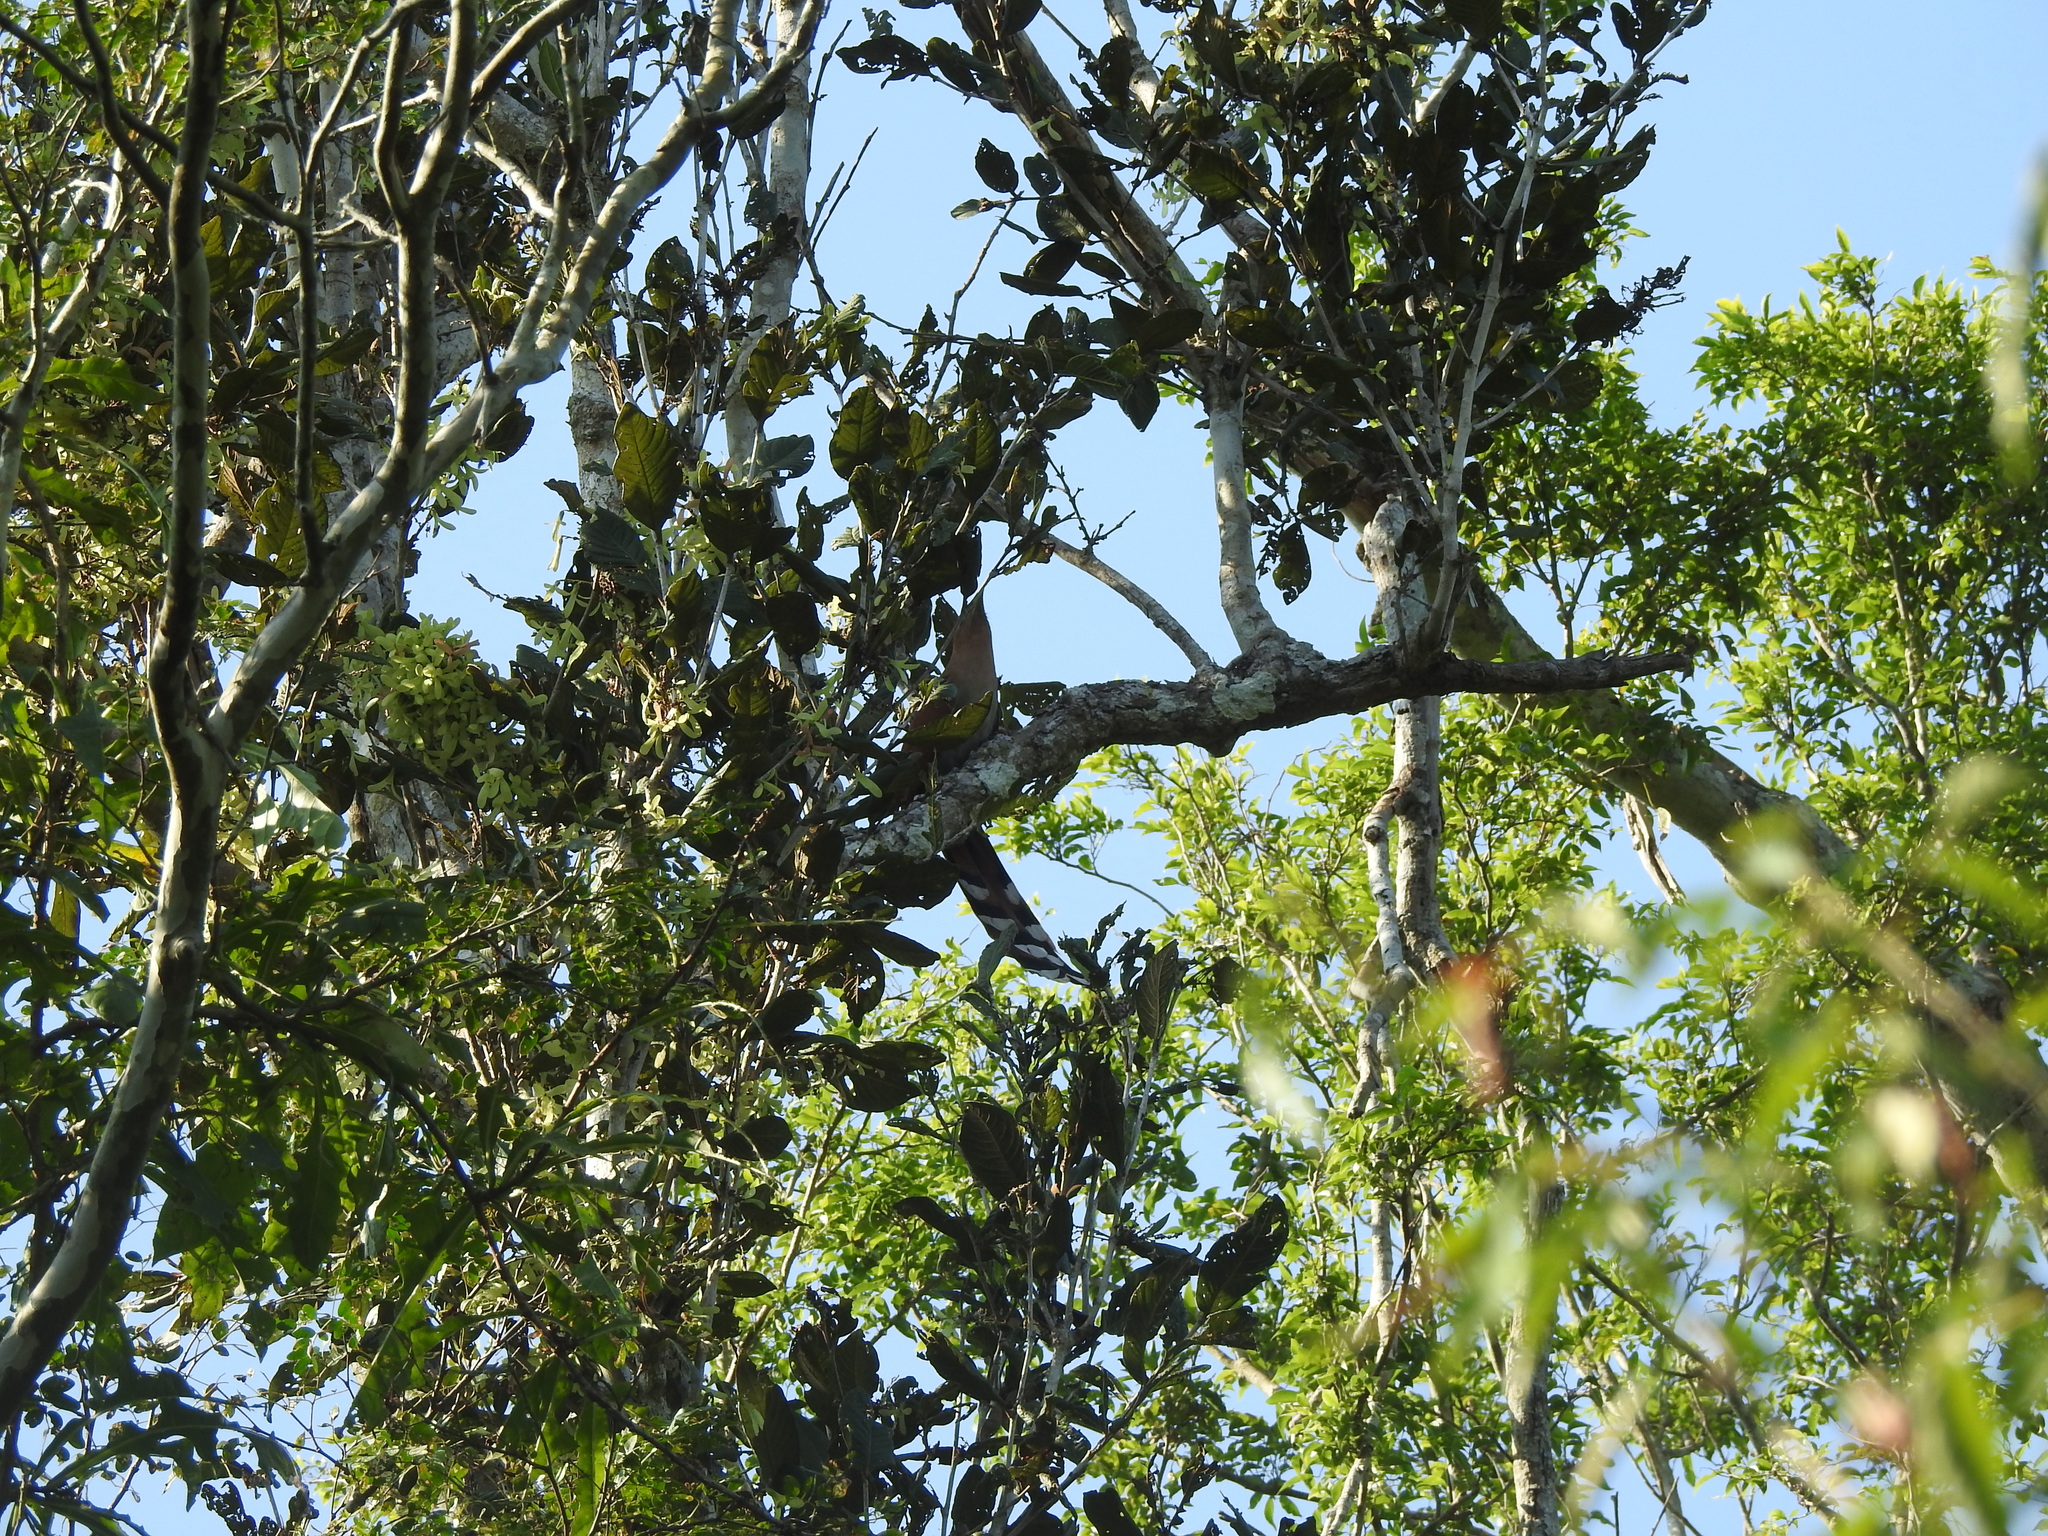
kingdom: Animalia
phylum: Chordata
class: Aves
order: Cuculiformes
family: Cuculidae
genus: Piaya
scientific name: Piaya cayana
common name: Squirrel cuckoo
